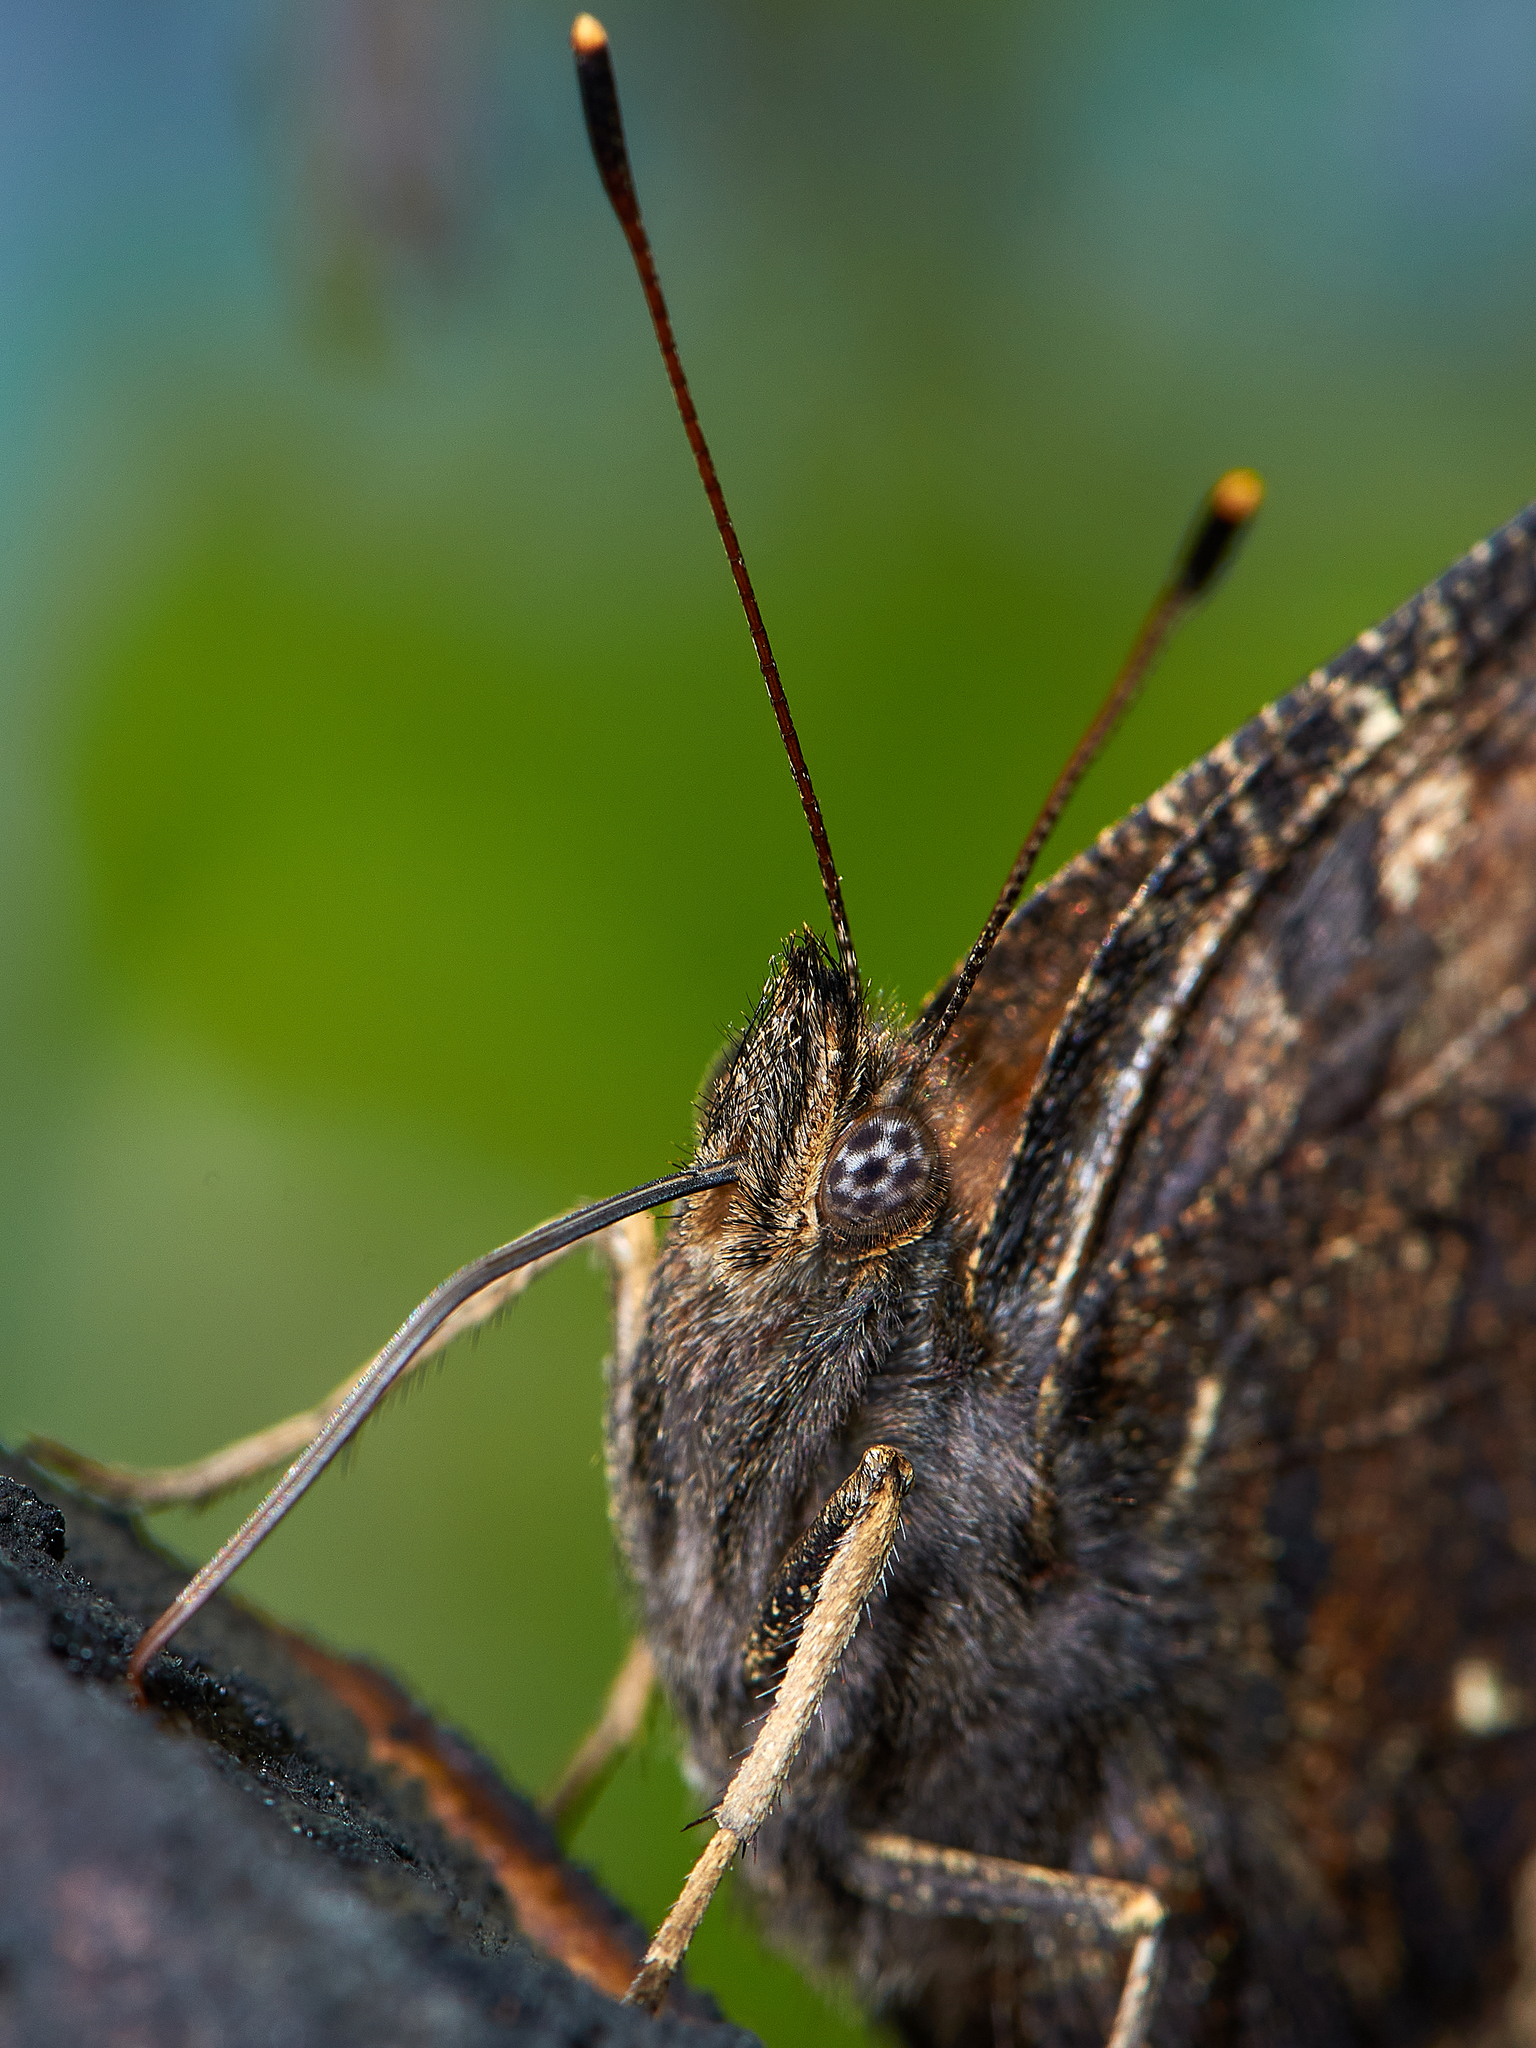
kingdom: Animalia
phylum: Arthropoda
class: Insecta
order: Lepidoptera
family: Nymphalidae
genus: Nymphalis
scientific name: Nymphalis xanthomelas
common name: Scarce tortoiseshell
